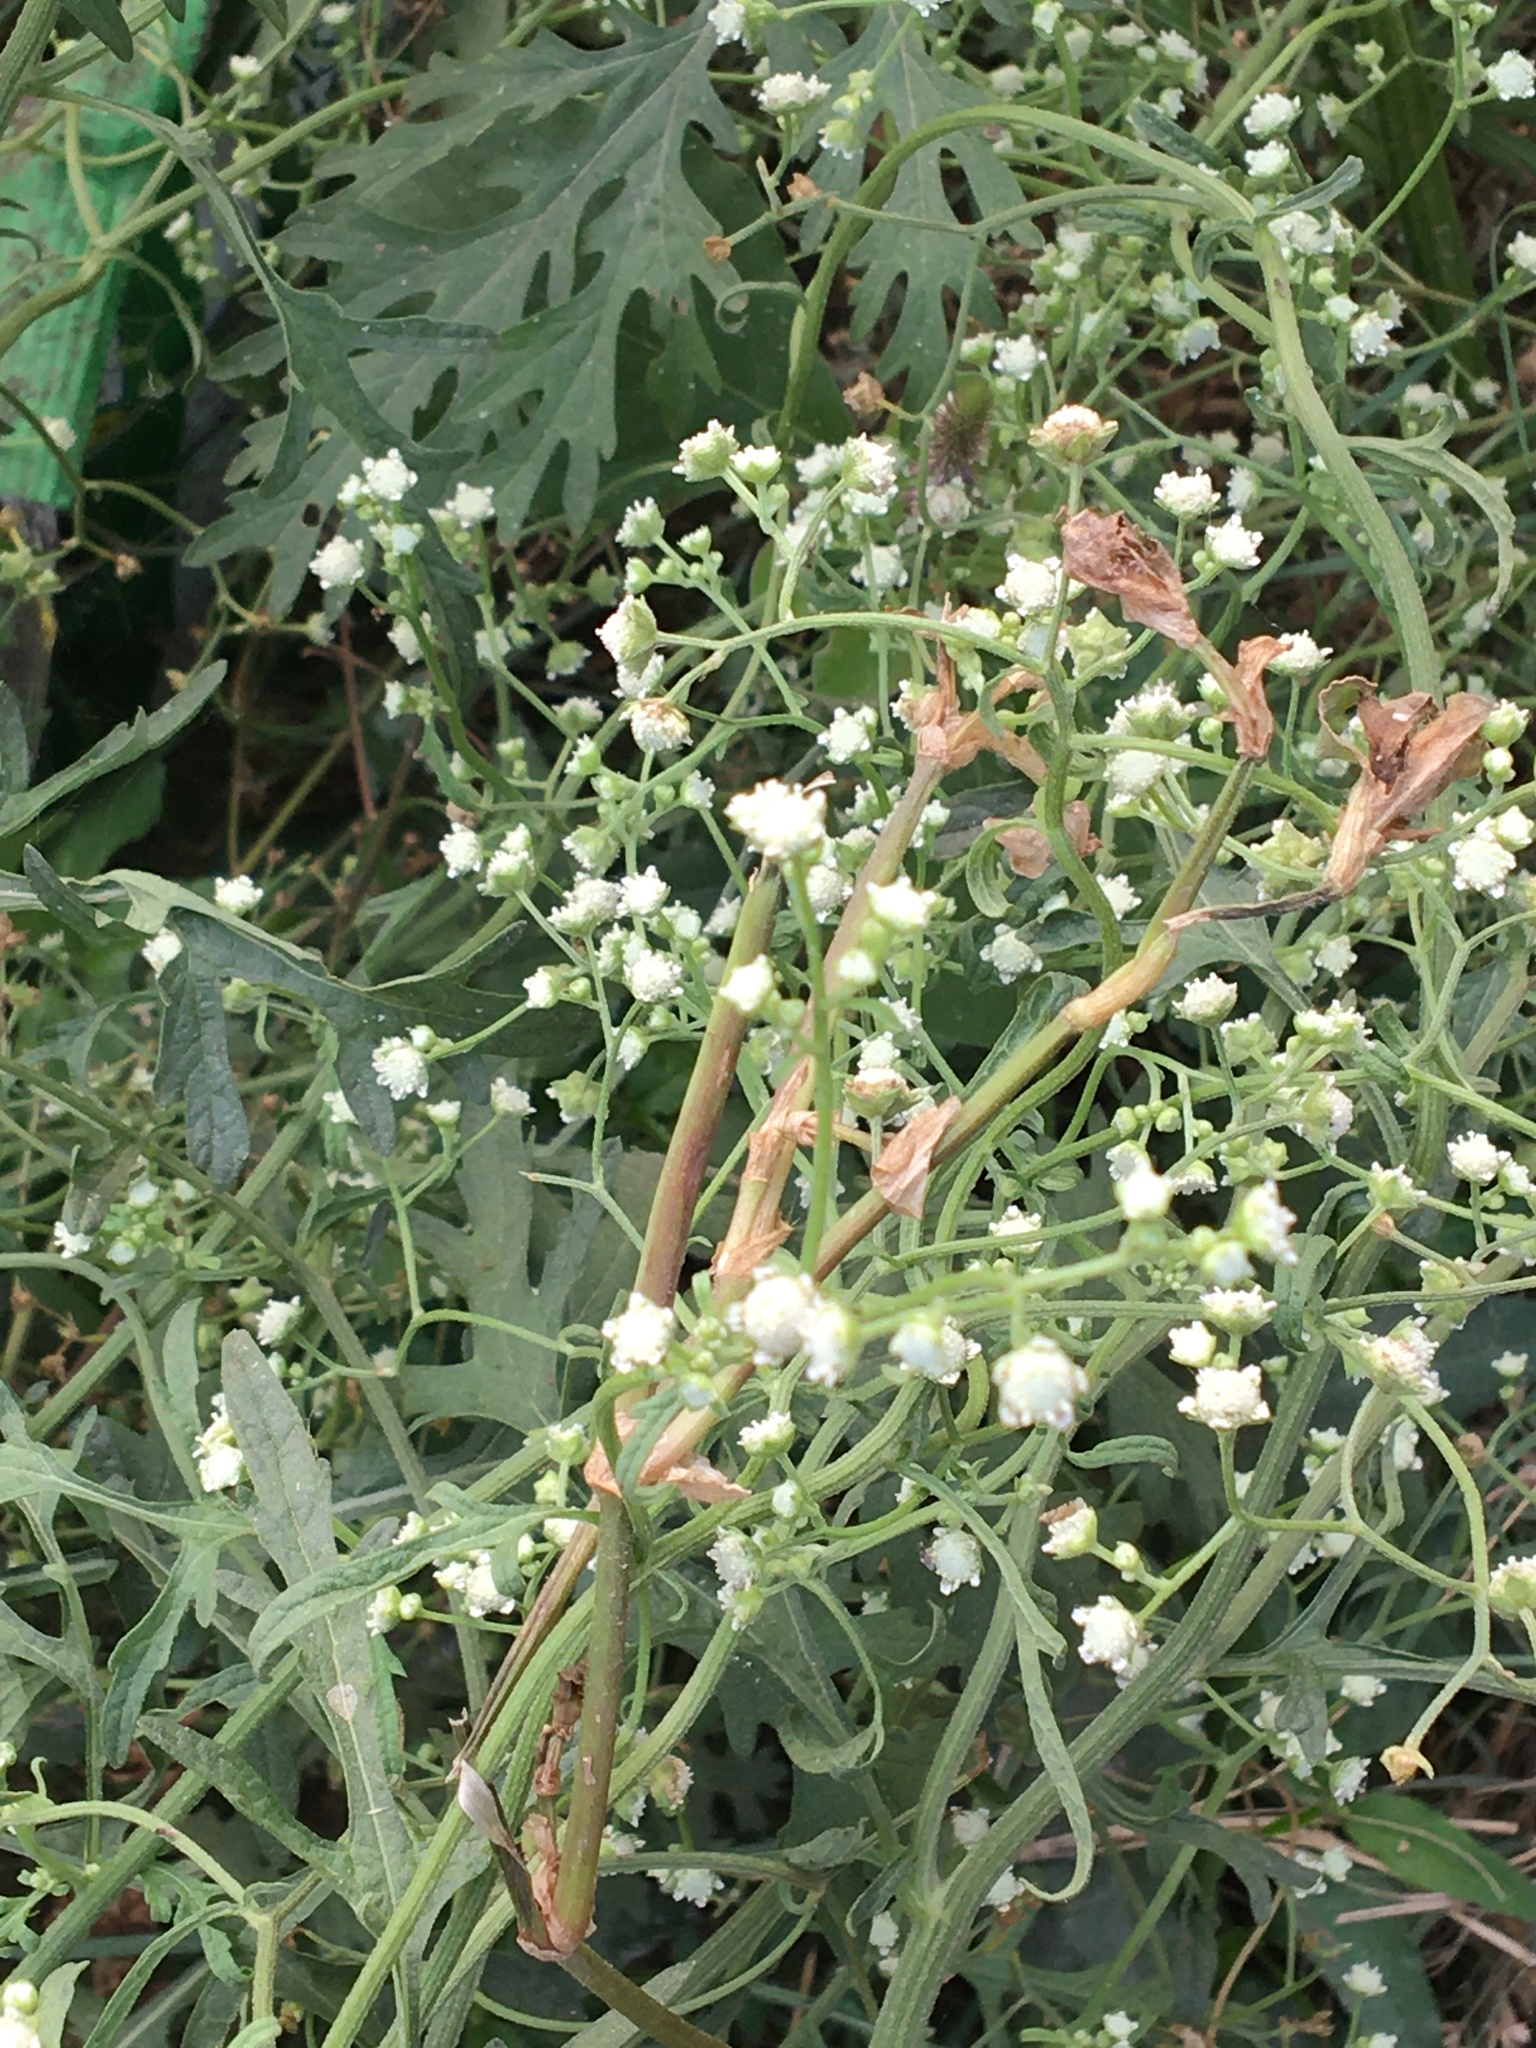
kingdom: Plantae
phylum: Tracheophyta
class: Magnoliopsida
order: Asterales
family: Asteraceae
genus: Parthenium
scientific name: Parthenium hysterophorus
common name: Santa maria feverfew
